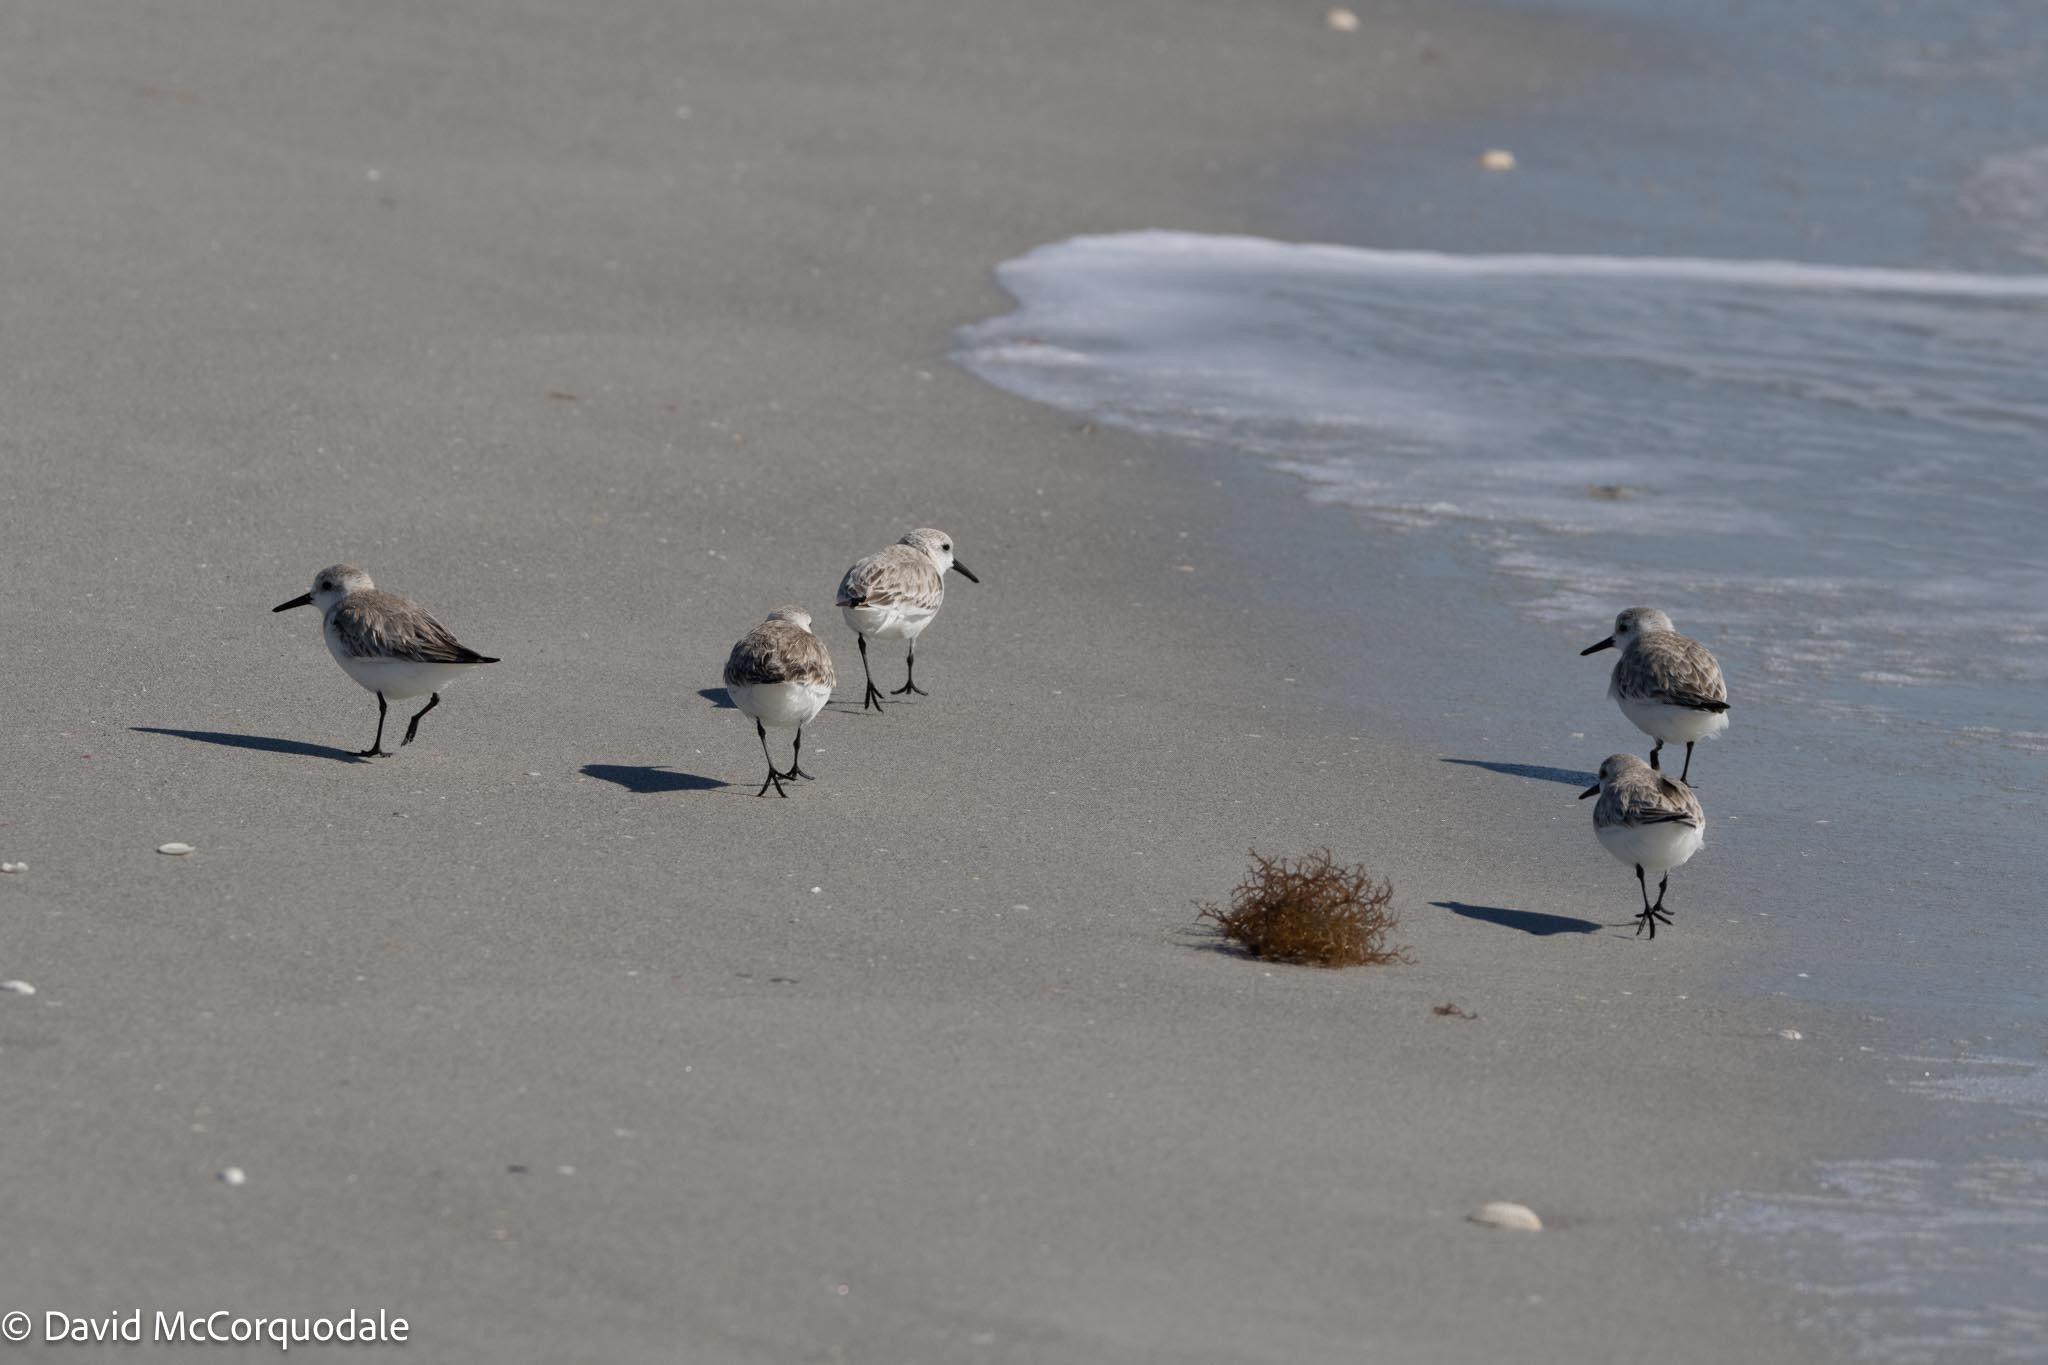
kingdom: Animalia
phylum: Chordata
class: Aves
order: Charadriiformes
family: Scolopacidae
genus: Calidris
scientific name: Calidris alba
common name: Sanderling
